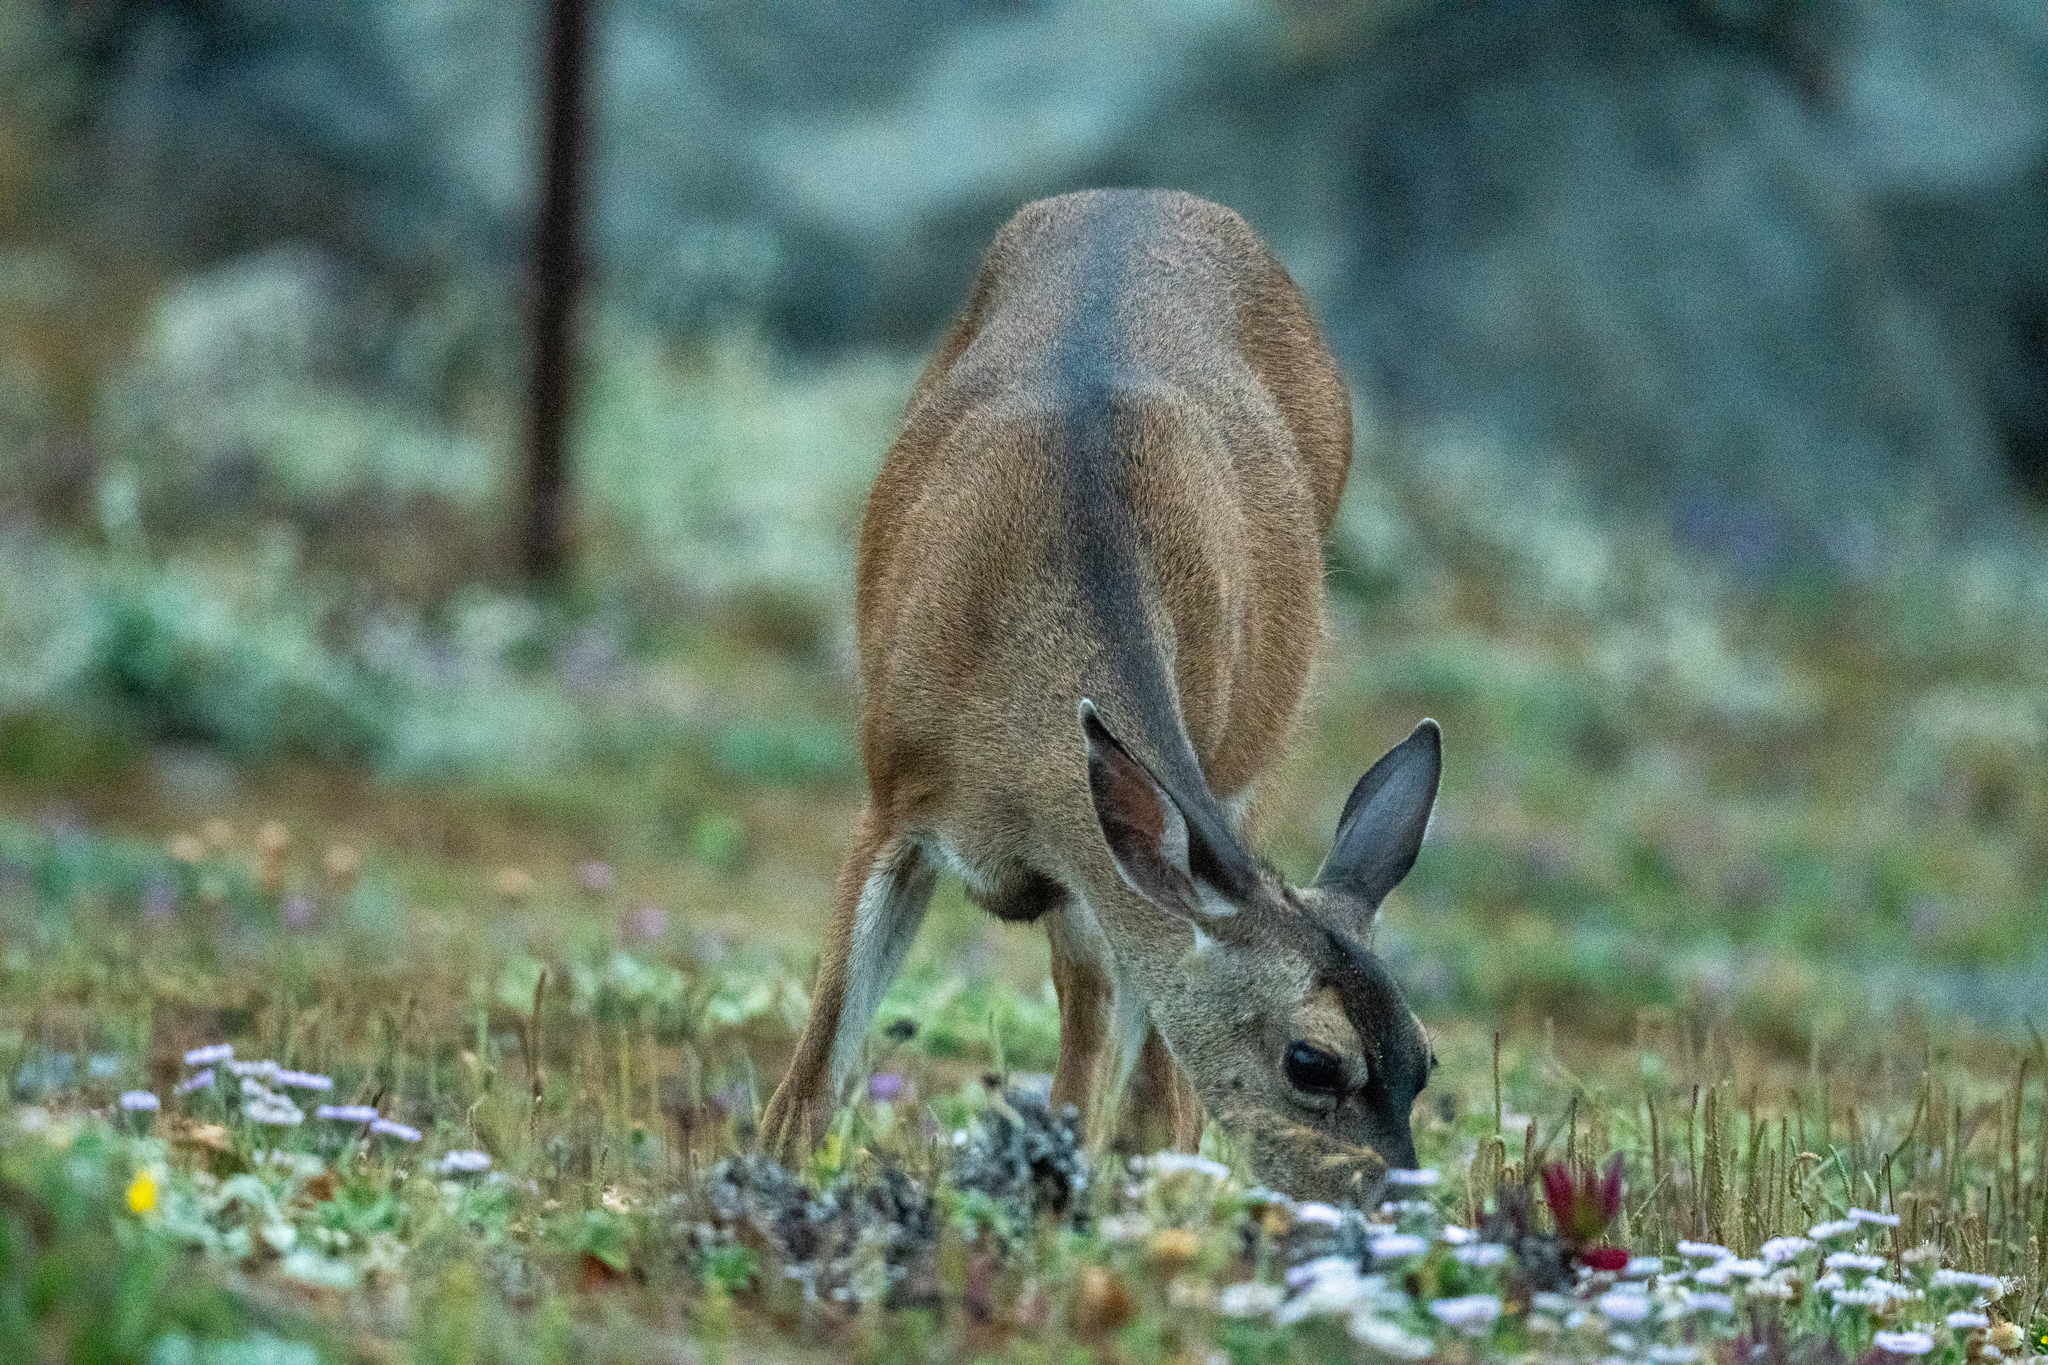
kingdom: Animalia
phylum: Chordata
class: Mammalia
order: Artiodactyla
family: Cervidae
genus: Odocoileus
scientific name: Odocoileus hemionus
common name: Mule deer
